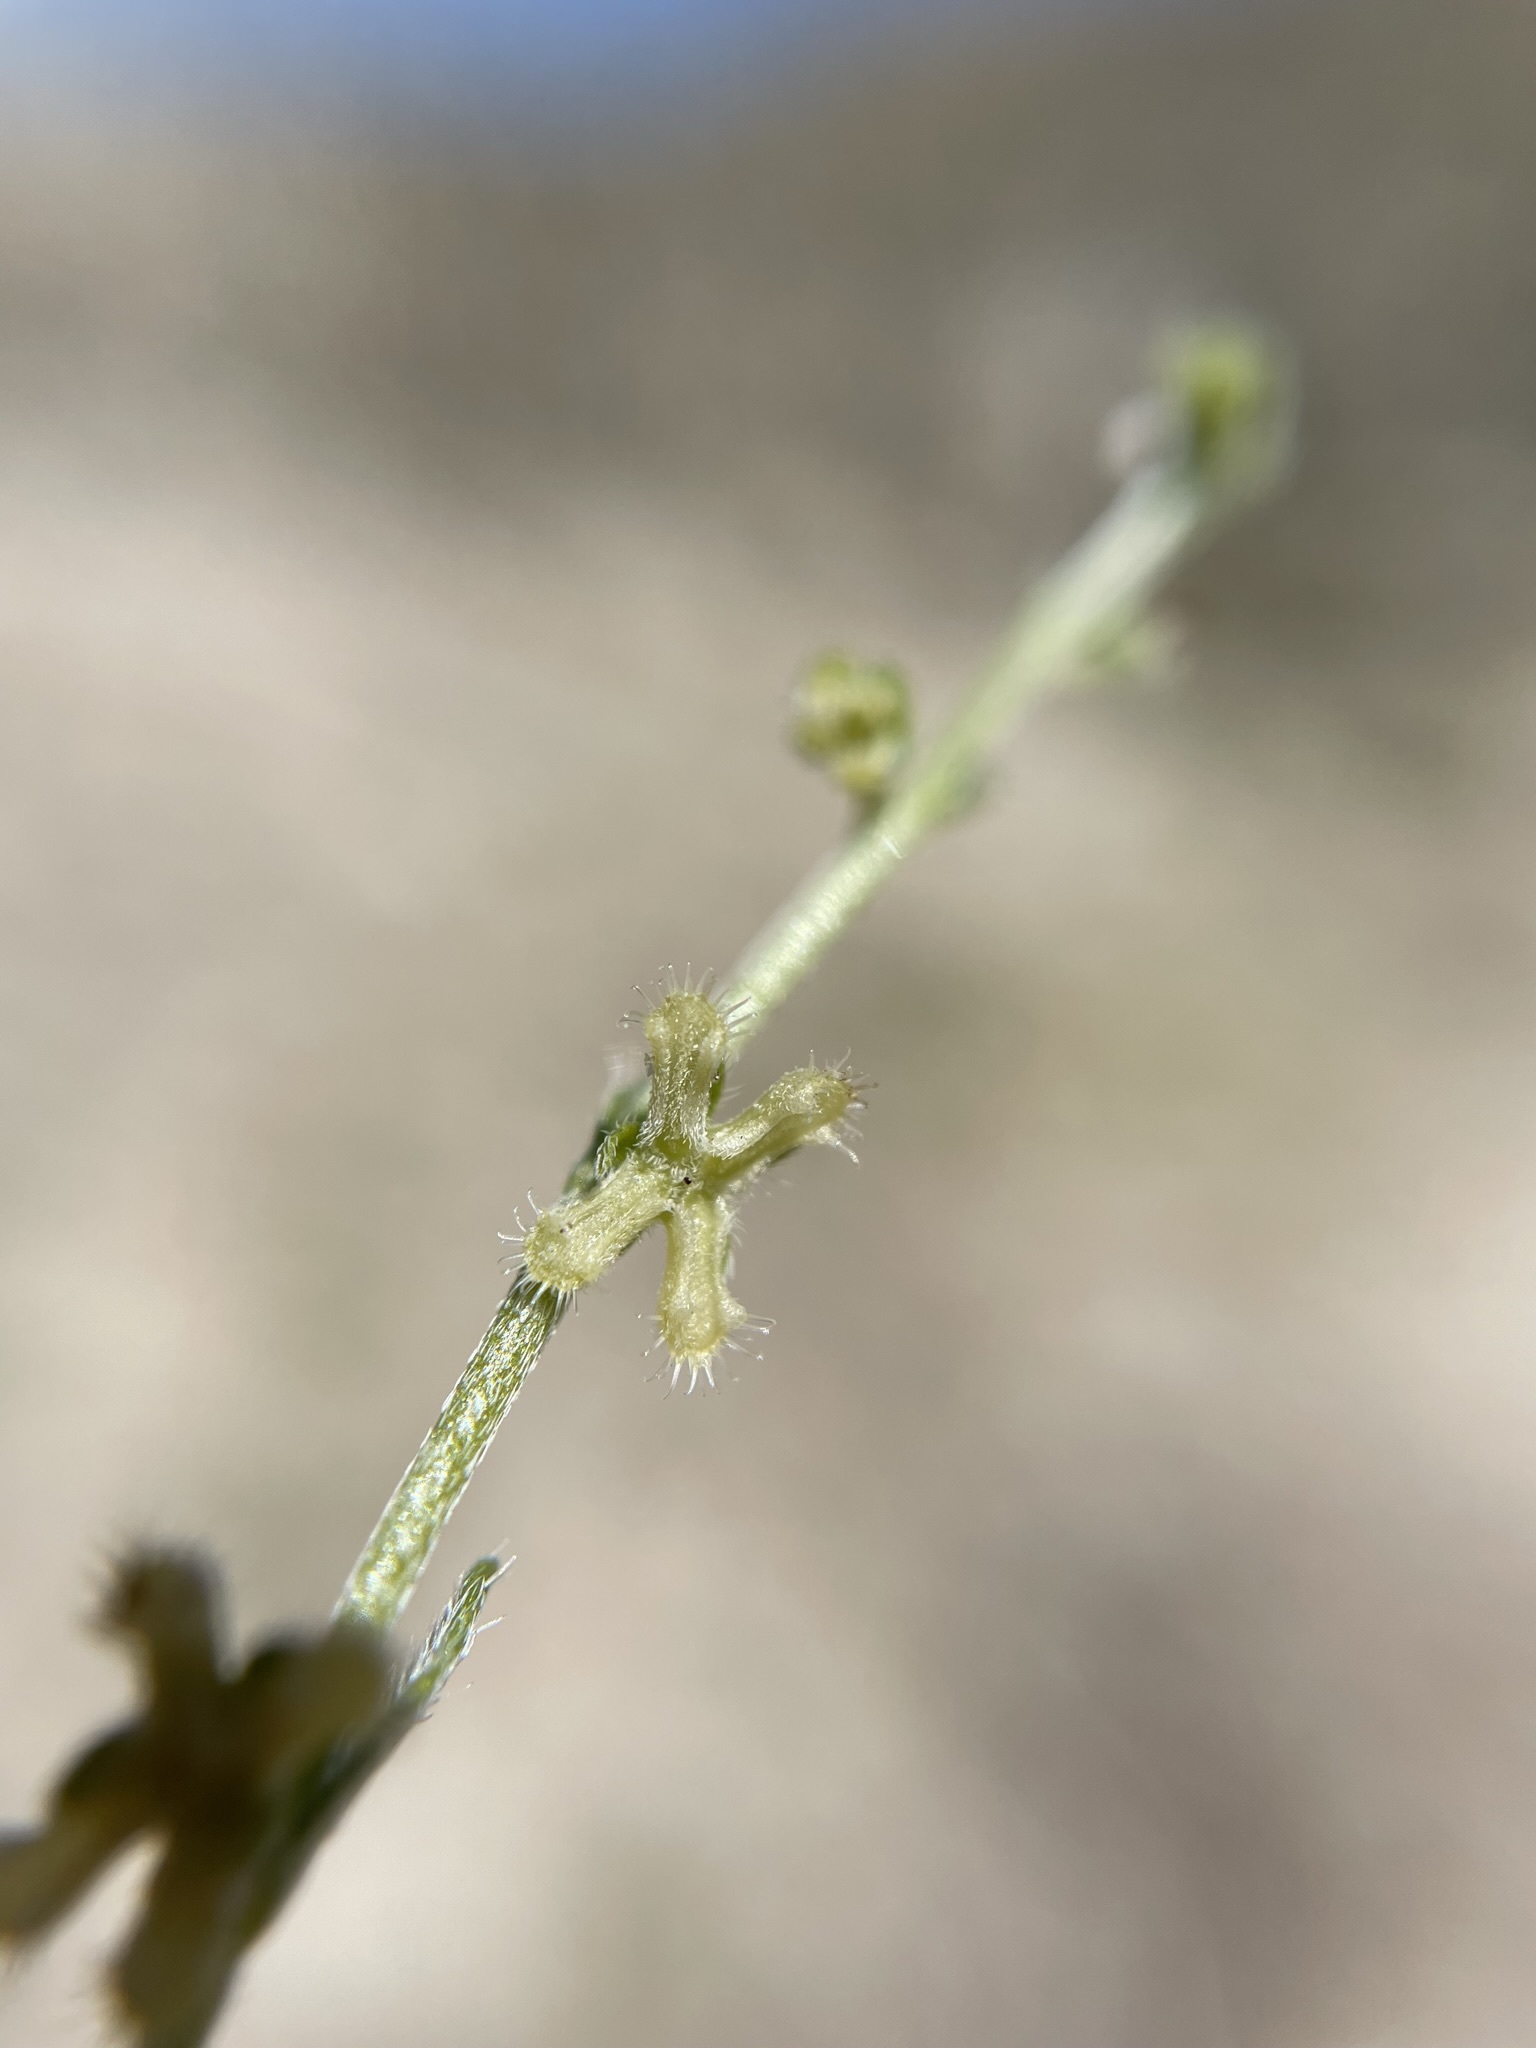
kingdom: Plantae
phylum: Tracheophyta
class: Magnoliopsida
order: Boraginales
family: Boraginaceae
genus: Pectocarya
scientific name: Pectocarya penicillata
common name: Short-leaved combseed
